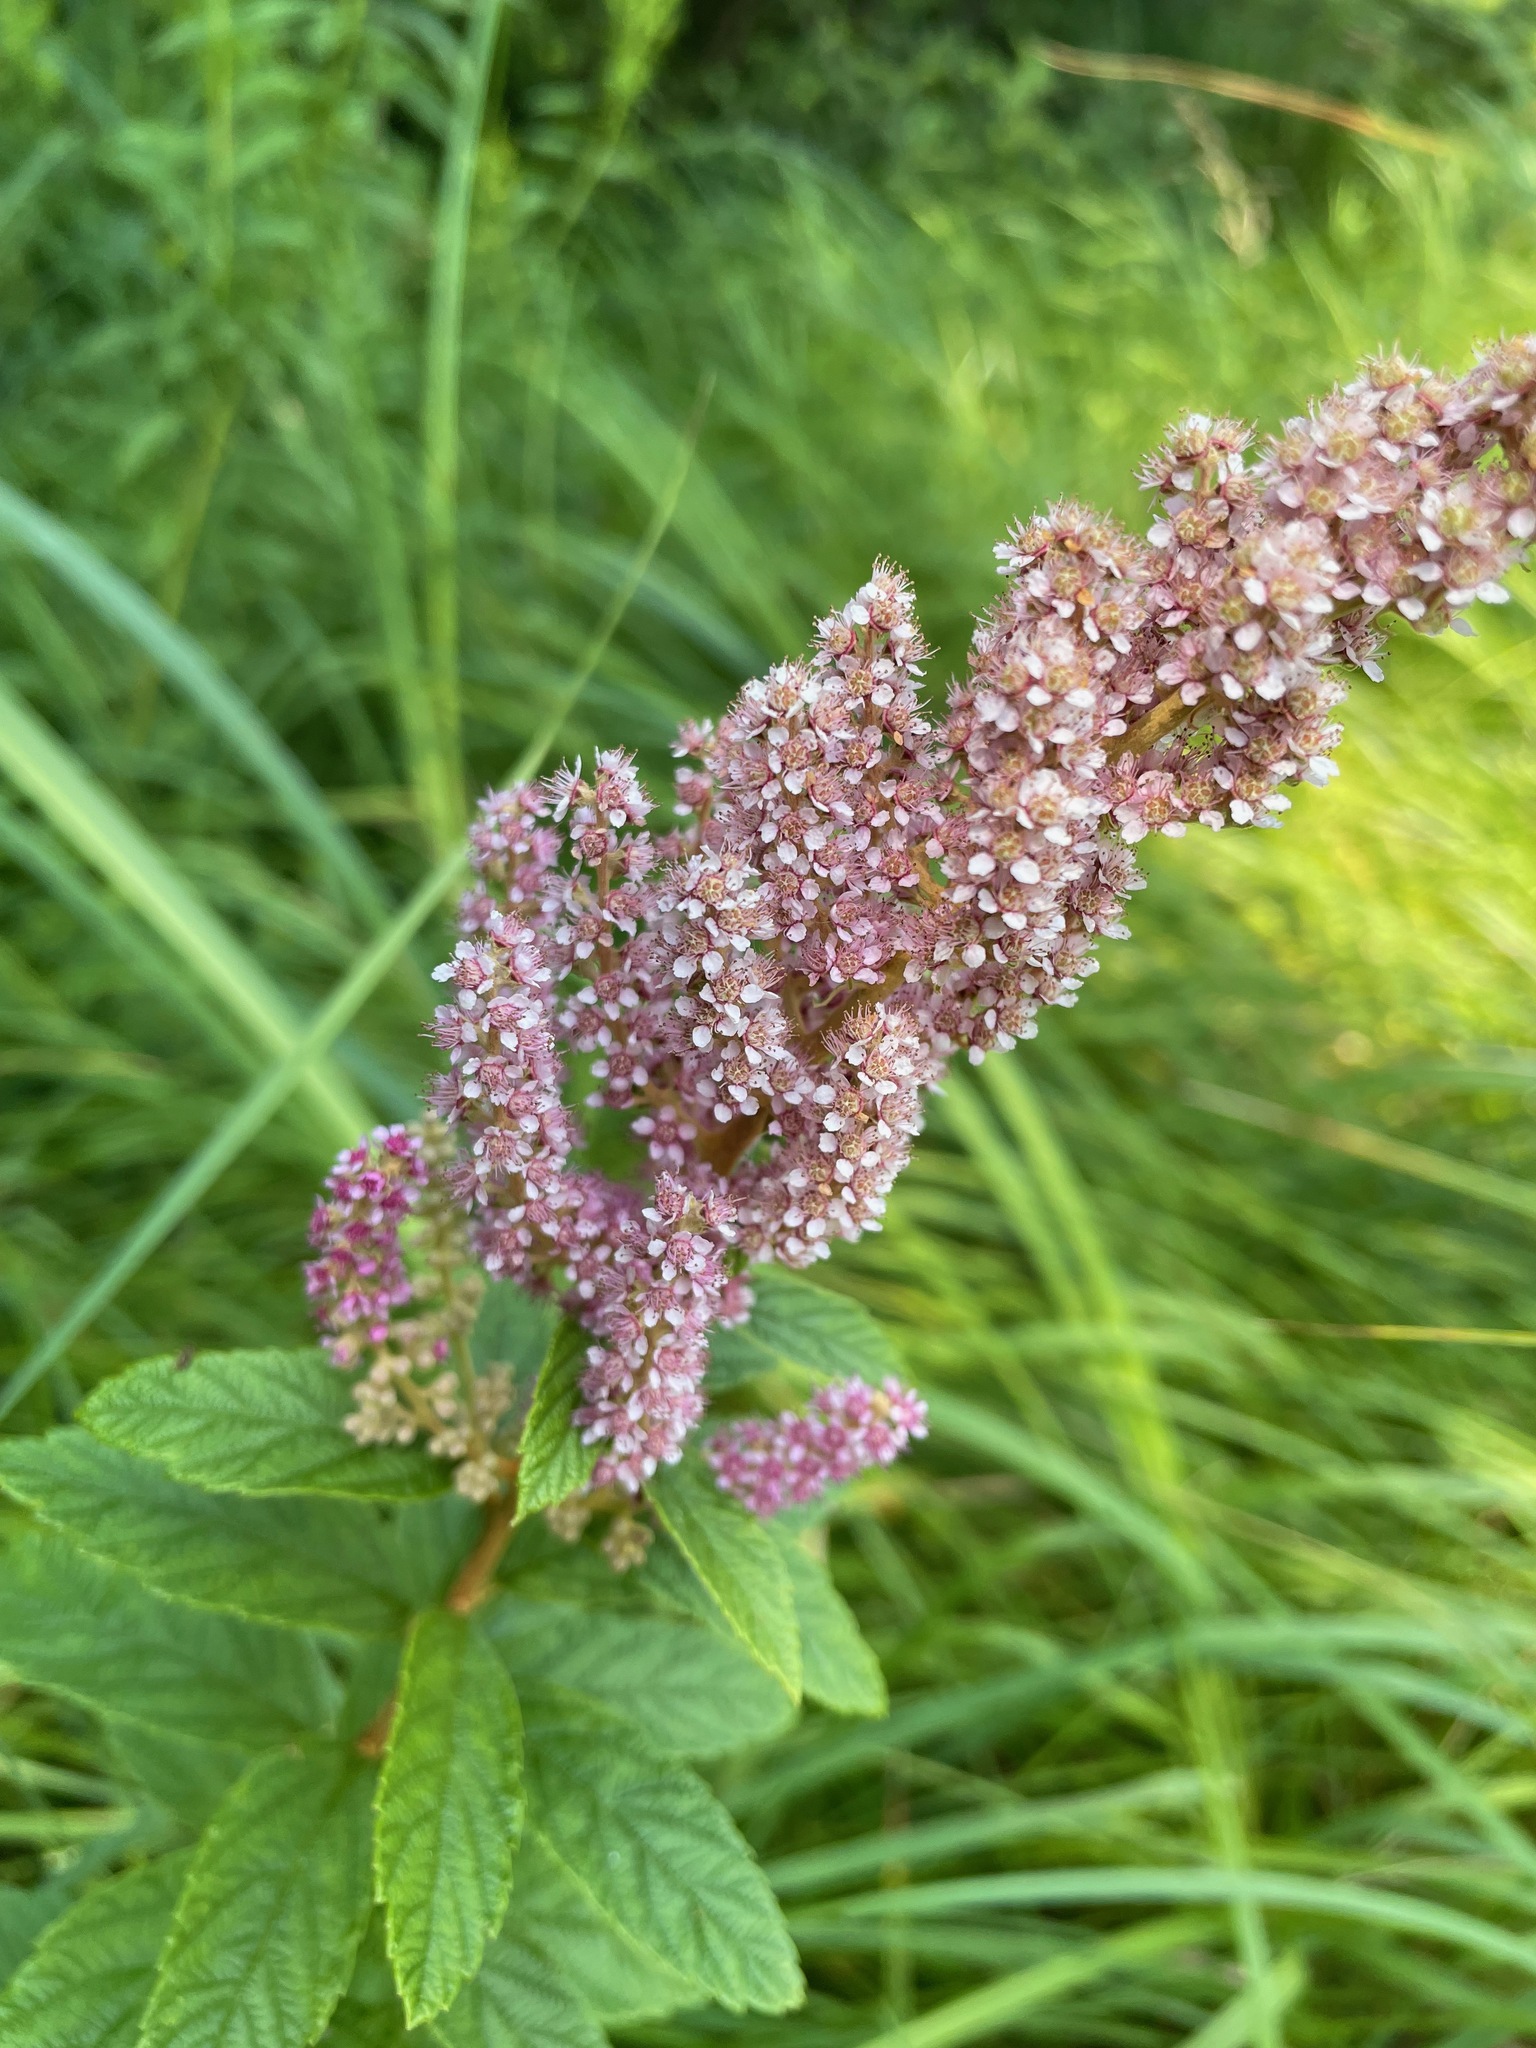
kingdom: Plantae
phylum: Tracheophyta
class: Magnoliopsida
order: Rosales
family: Rosaceae
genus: Spiraea
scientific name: Spiraea tomentosa
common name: Hardhack
